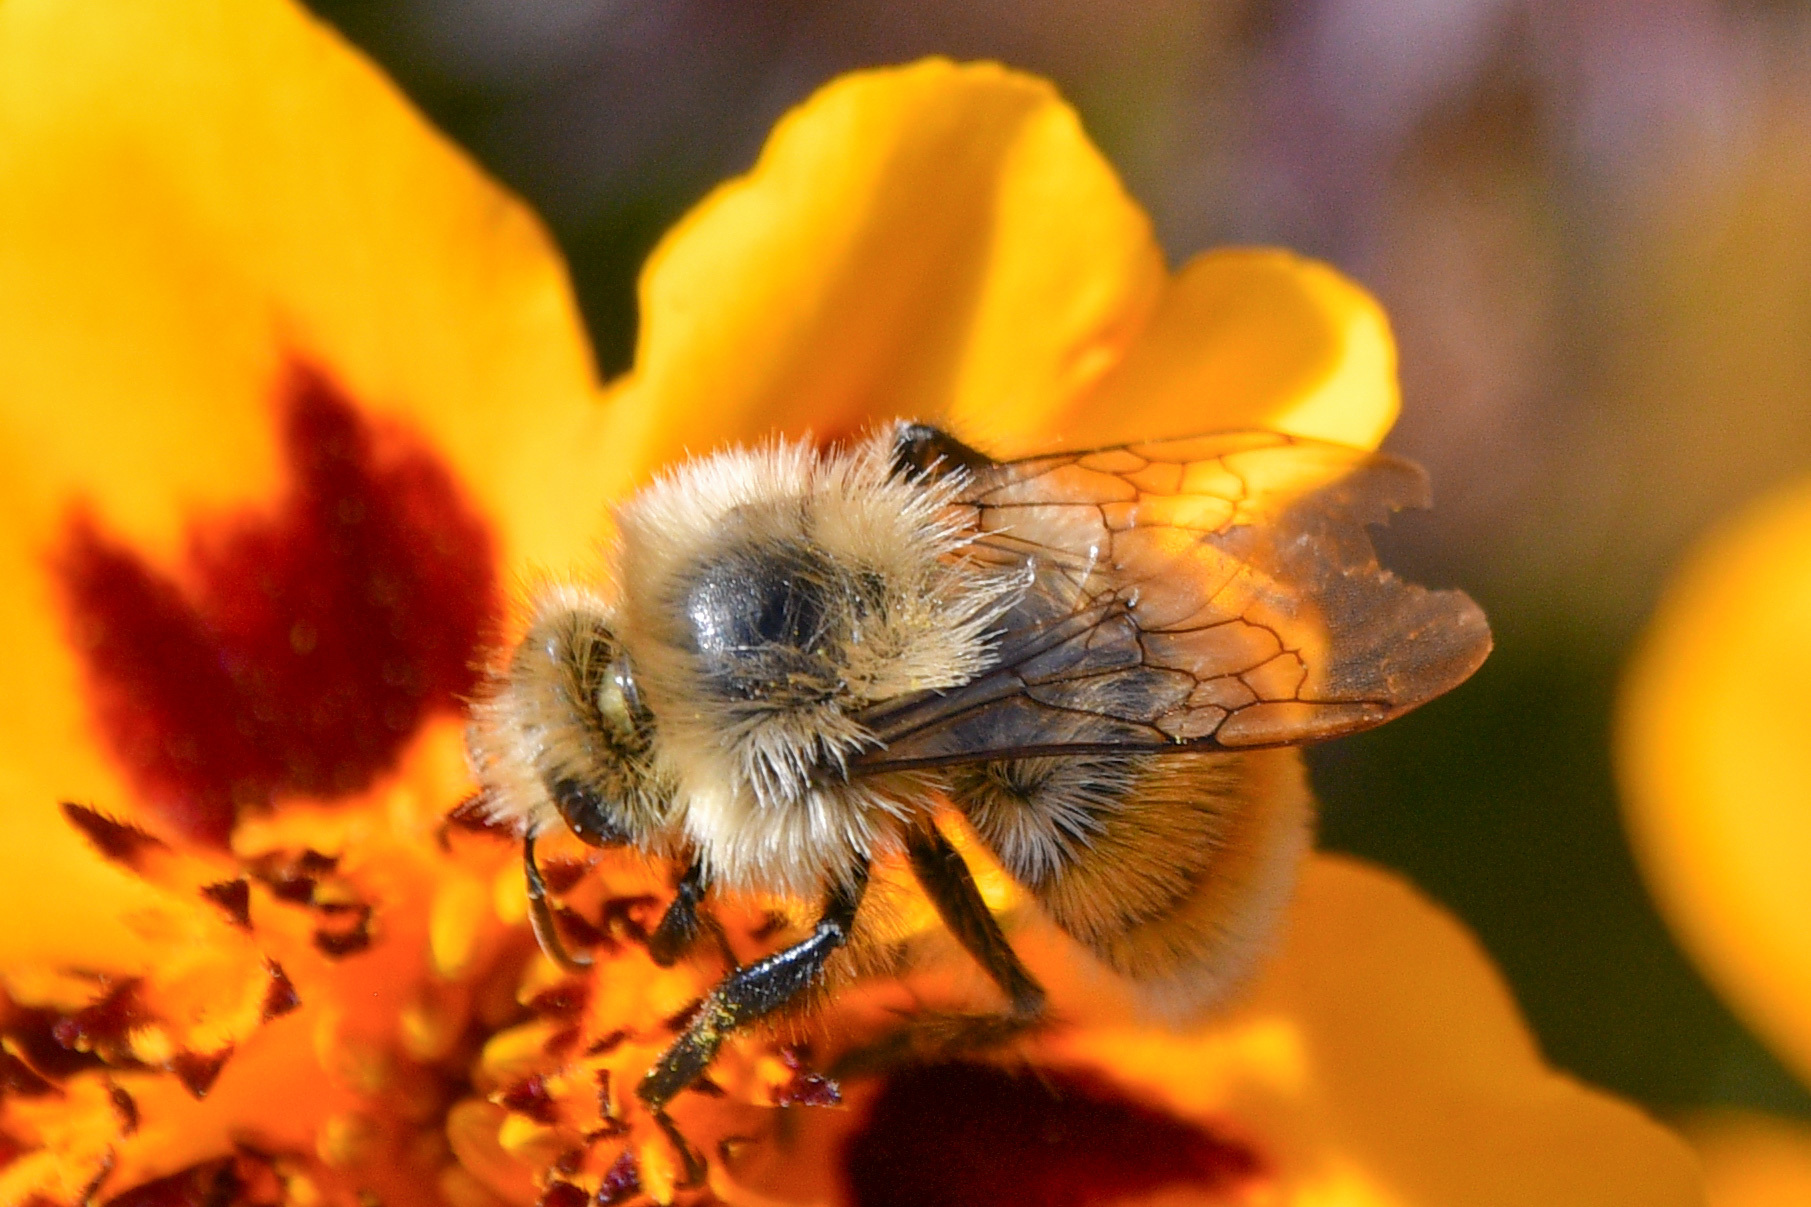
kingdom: Animalia
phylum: Arthropoda
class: Insecta
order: Hymenoptera
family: Apidae
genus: Bombus
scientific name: Bombus huntii
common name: Hunt bumble bee
